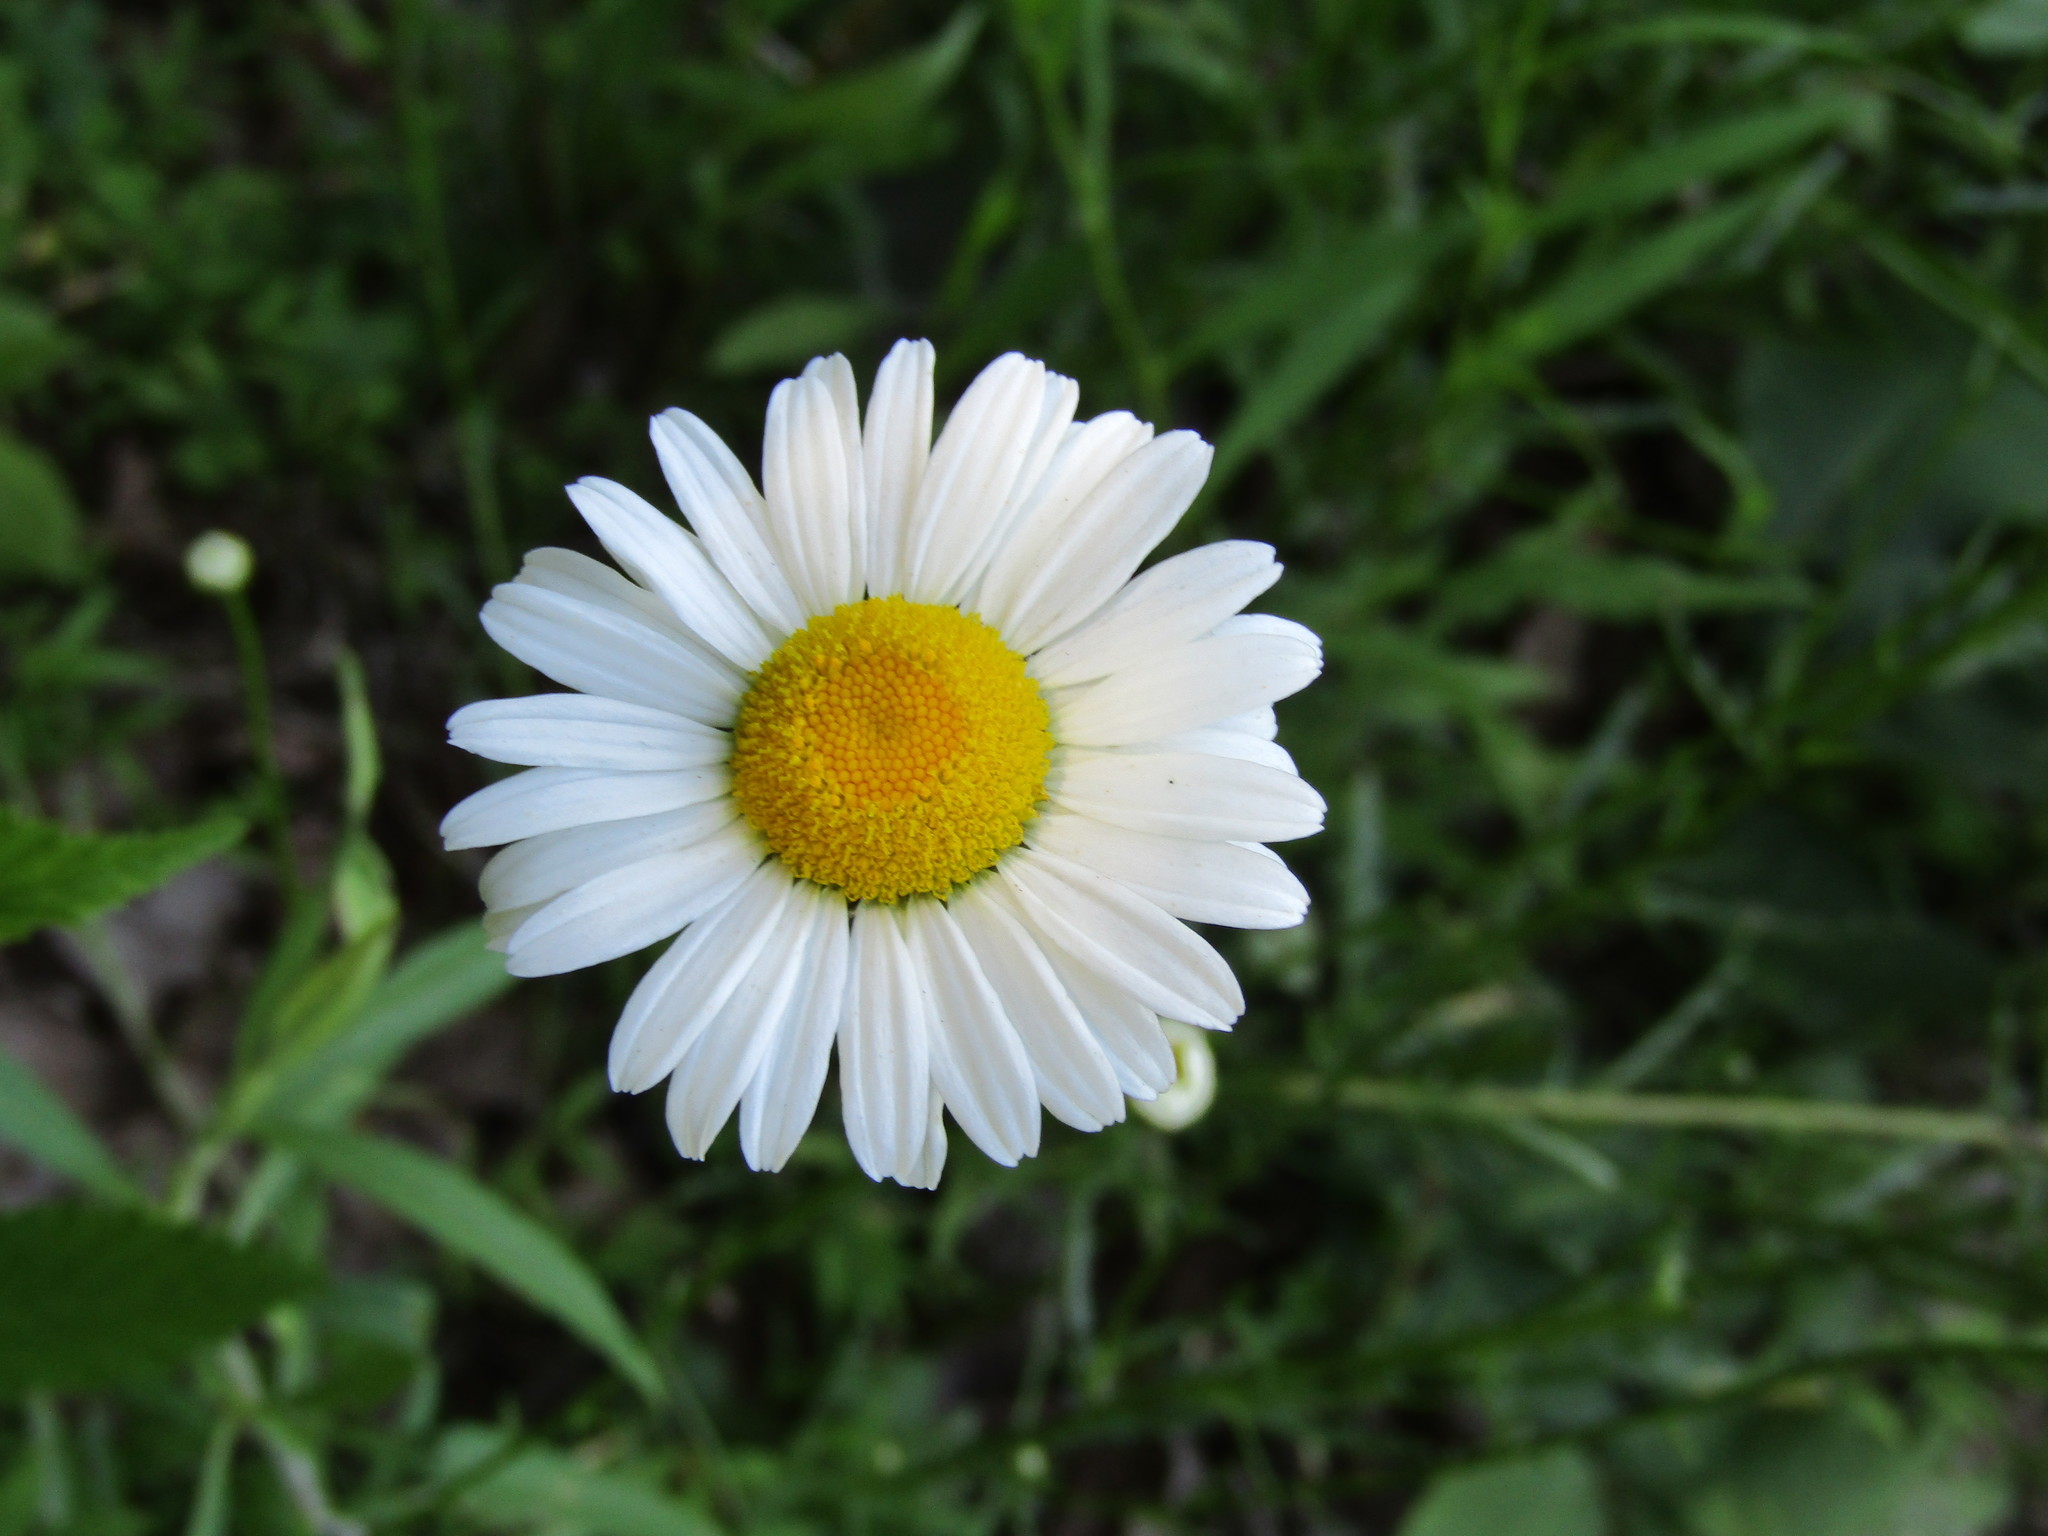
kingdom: Plantae
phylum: Tracheophyta
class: Magnoliopsida
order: Asterales
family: Asteraceae
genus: Leucanthemum
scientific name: Leucanthemum vulgare
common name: Oxeye daisy
